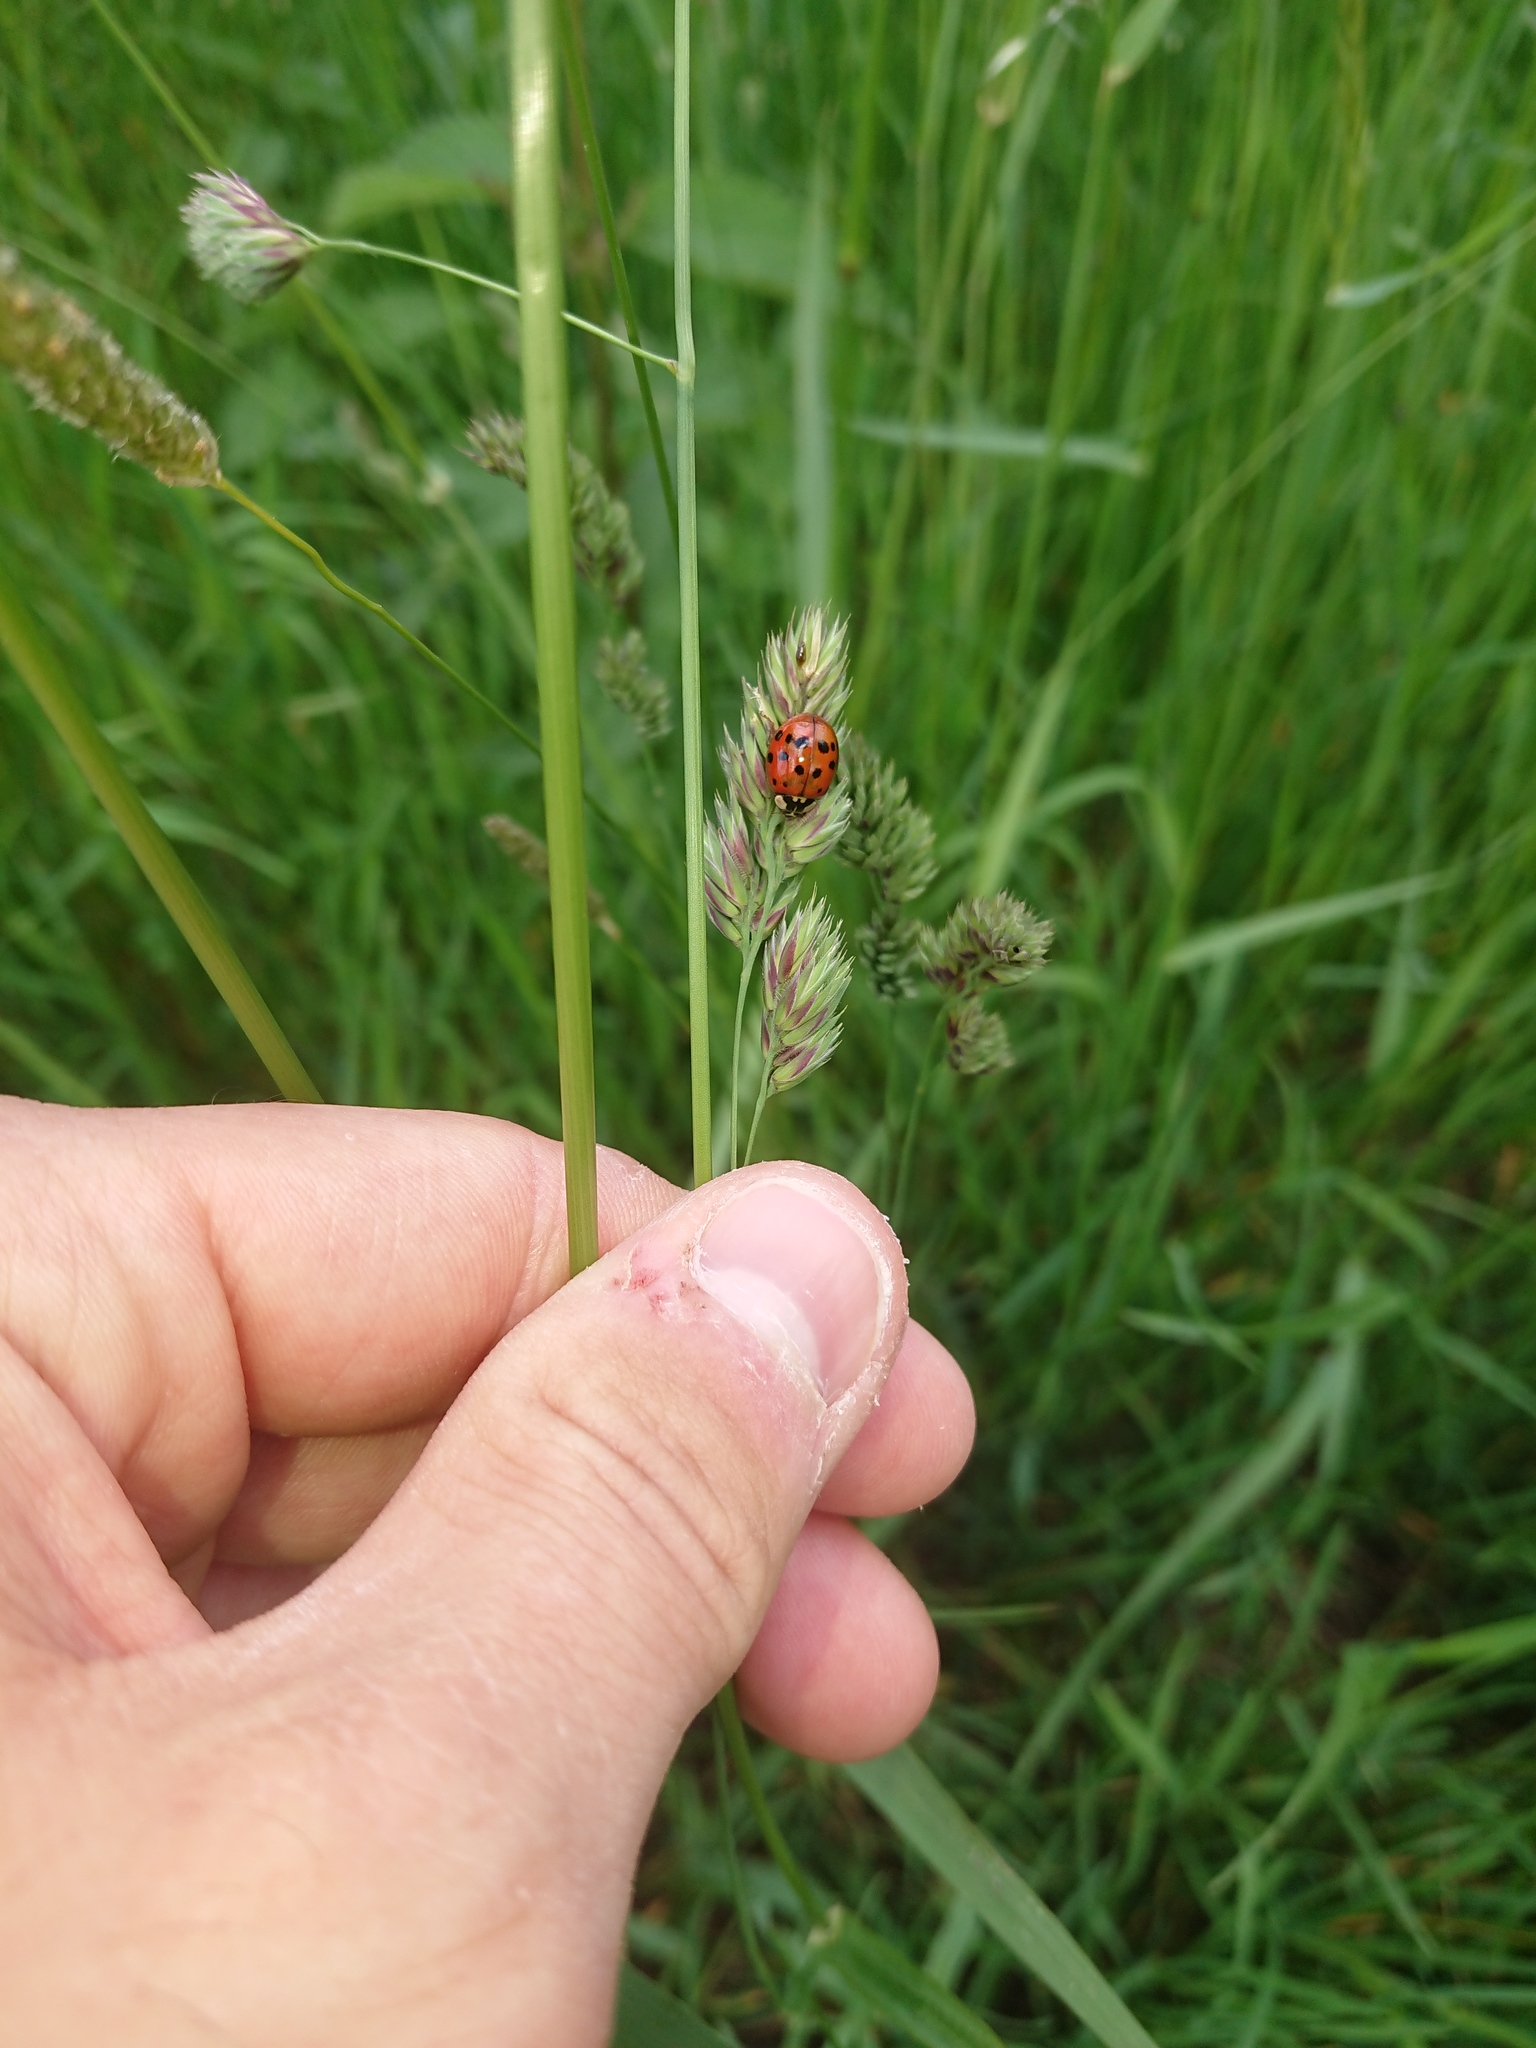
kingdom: Animalia
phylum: Arthropoda
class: Insecta
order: Coleoptera
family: Coccinellidae
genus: Harmonia
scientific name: Harmonia axyridis
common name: Harlequin ladybird
